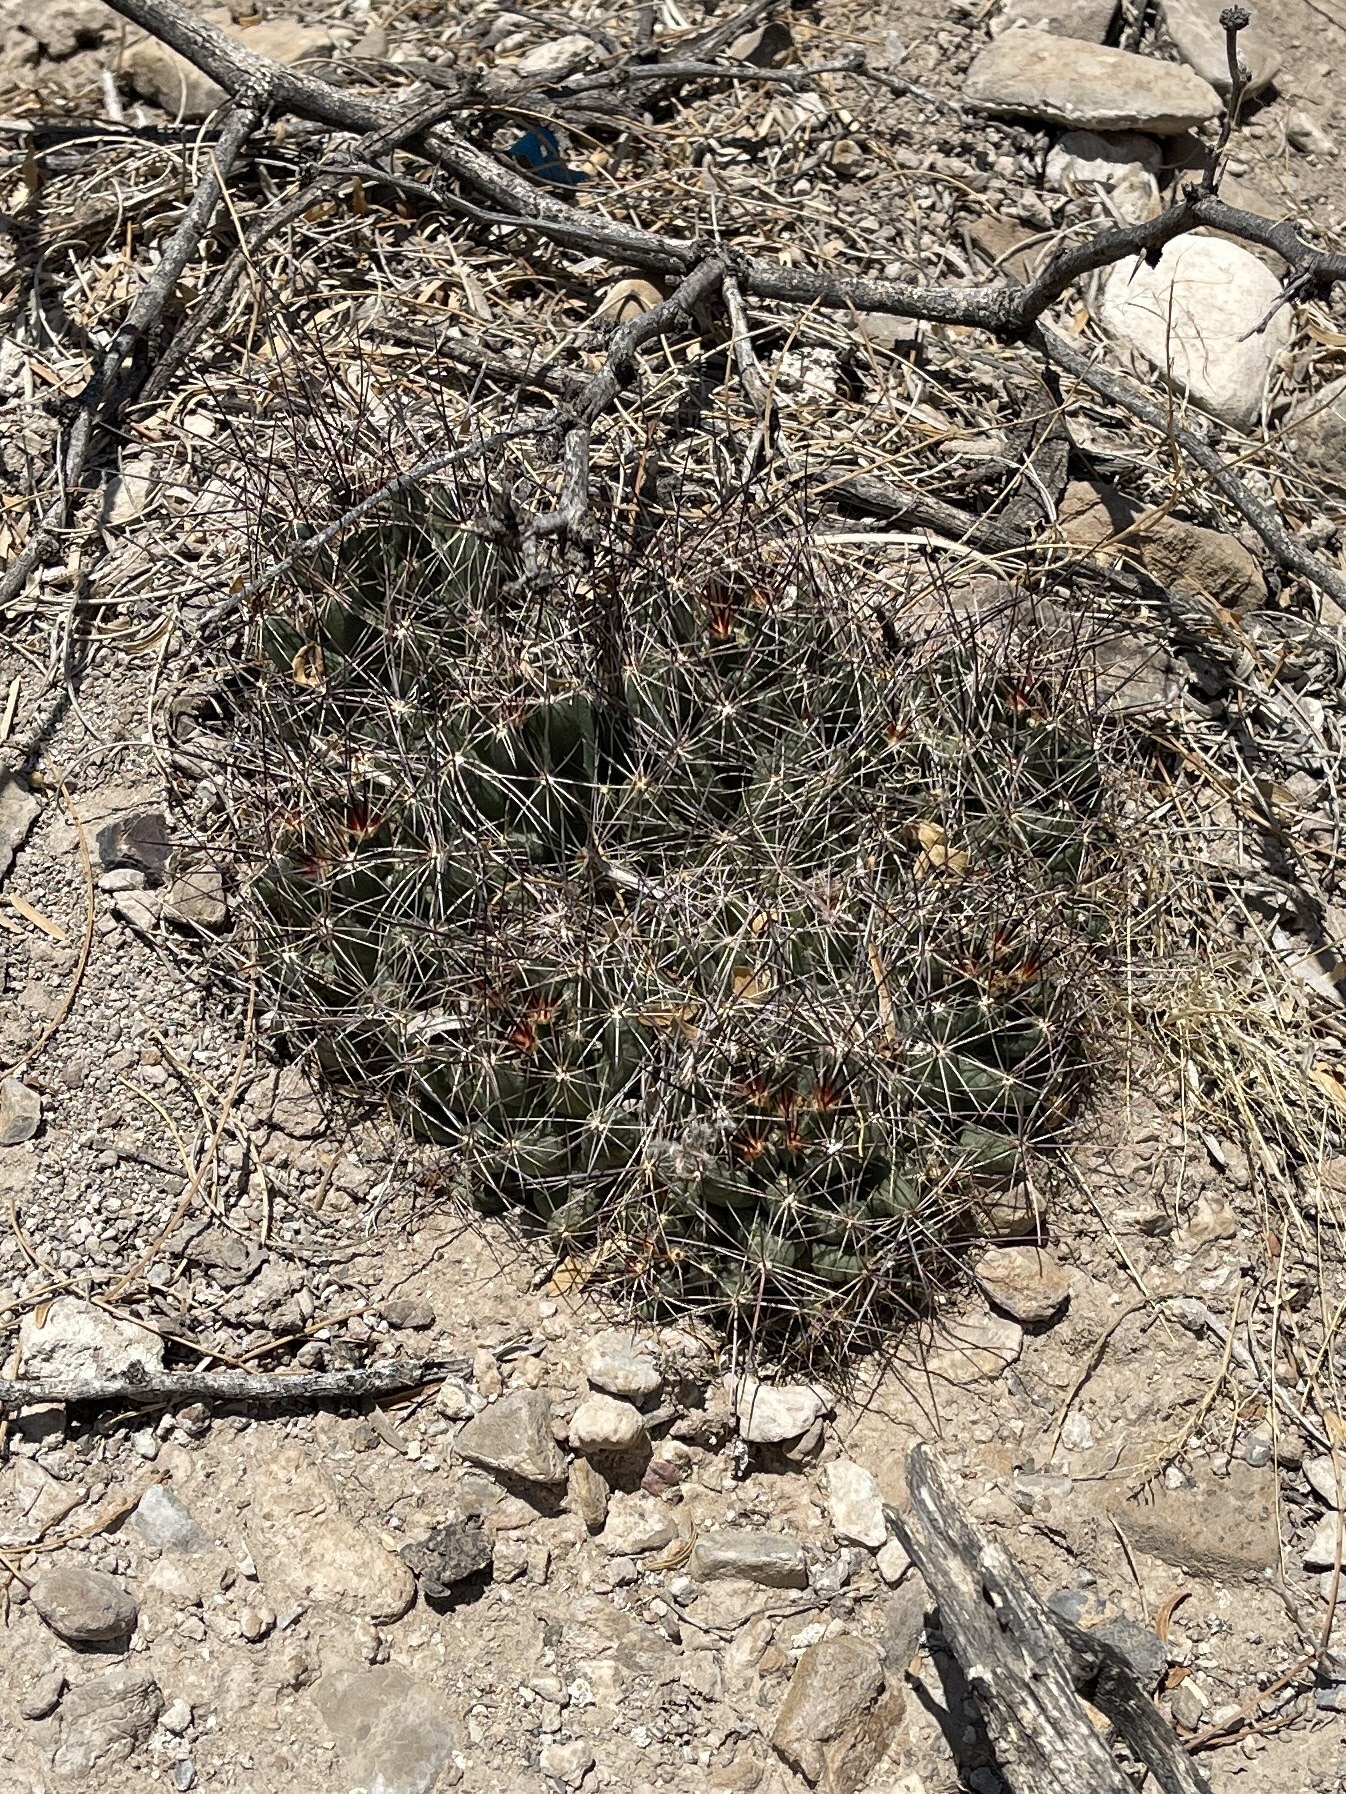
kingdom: Plantae
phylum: Tracheophyta
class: Magnoliopsida
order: Caryophyllales
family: Cactaceae
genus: Coryphantha
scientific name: Coryphantha macromeris
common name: Nipple beehive cactus
